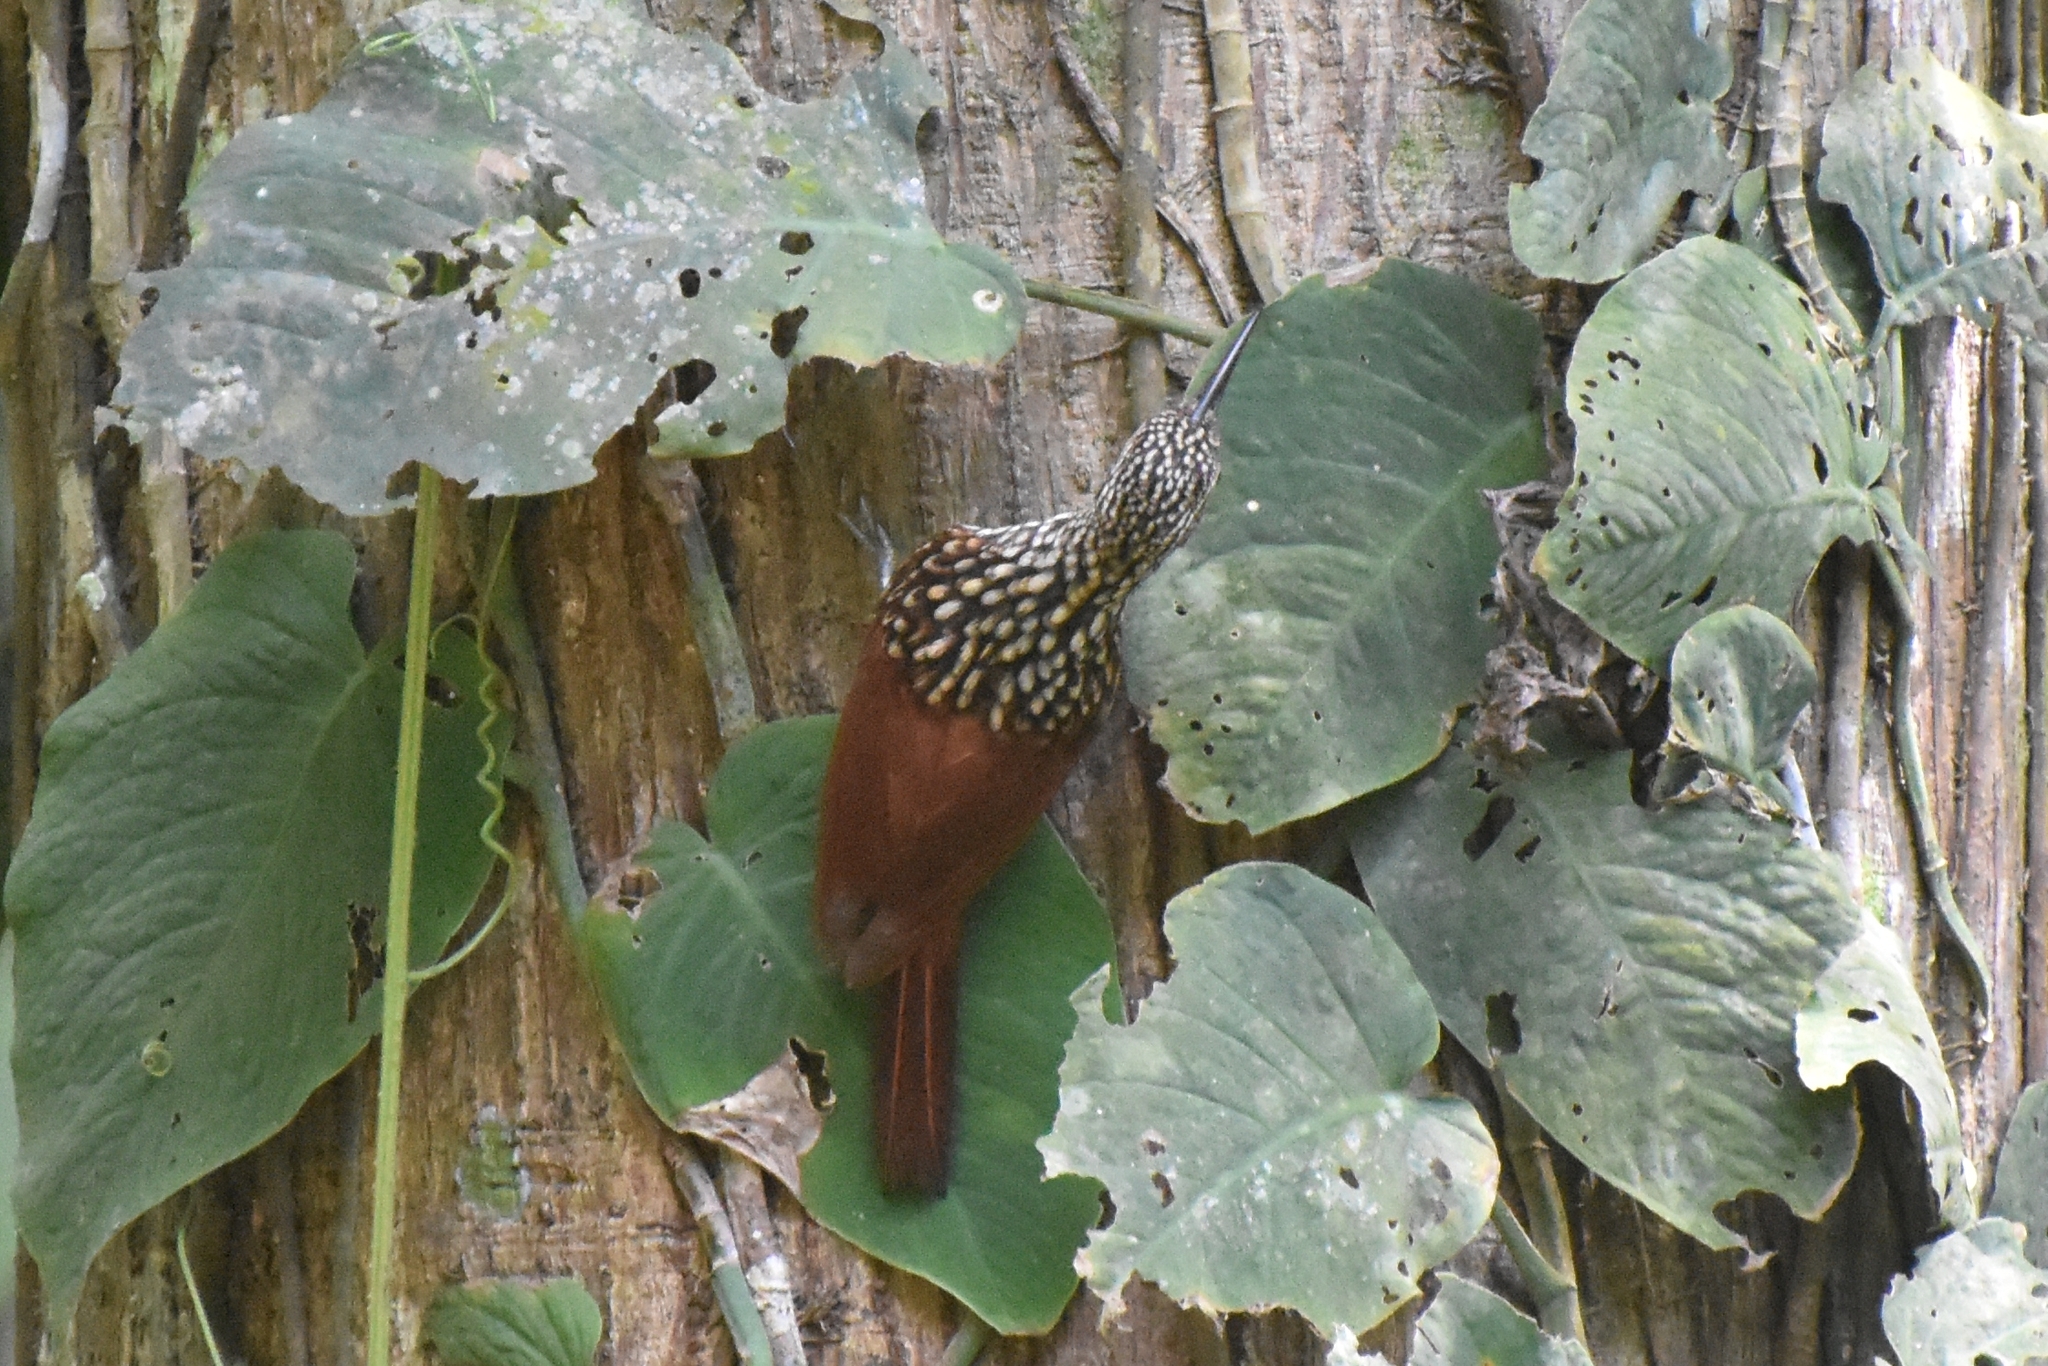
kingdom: Animalia
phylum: Chordata
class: Aves
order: Passeriformes
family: Furnariidae
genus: Xiphorhynchus
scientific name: Xiphorhynchus lachrymosus
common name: Black-striped woodcreeper
